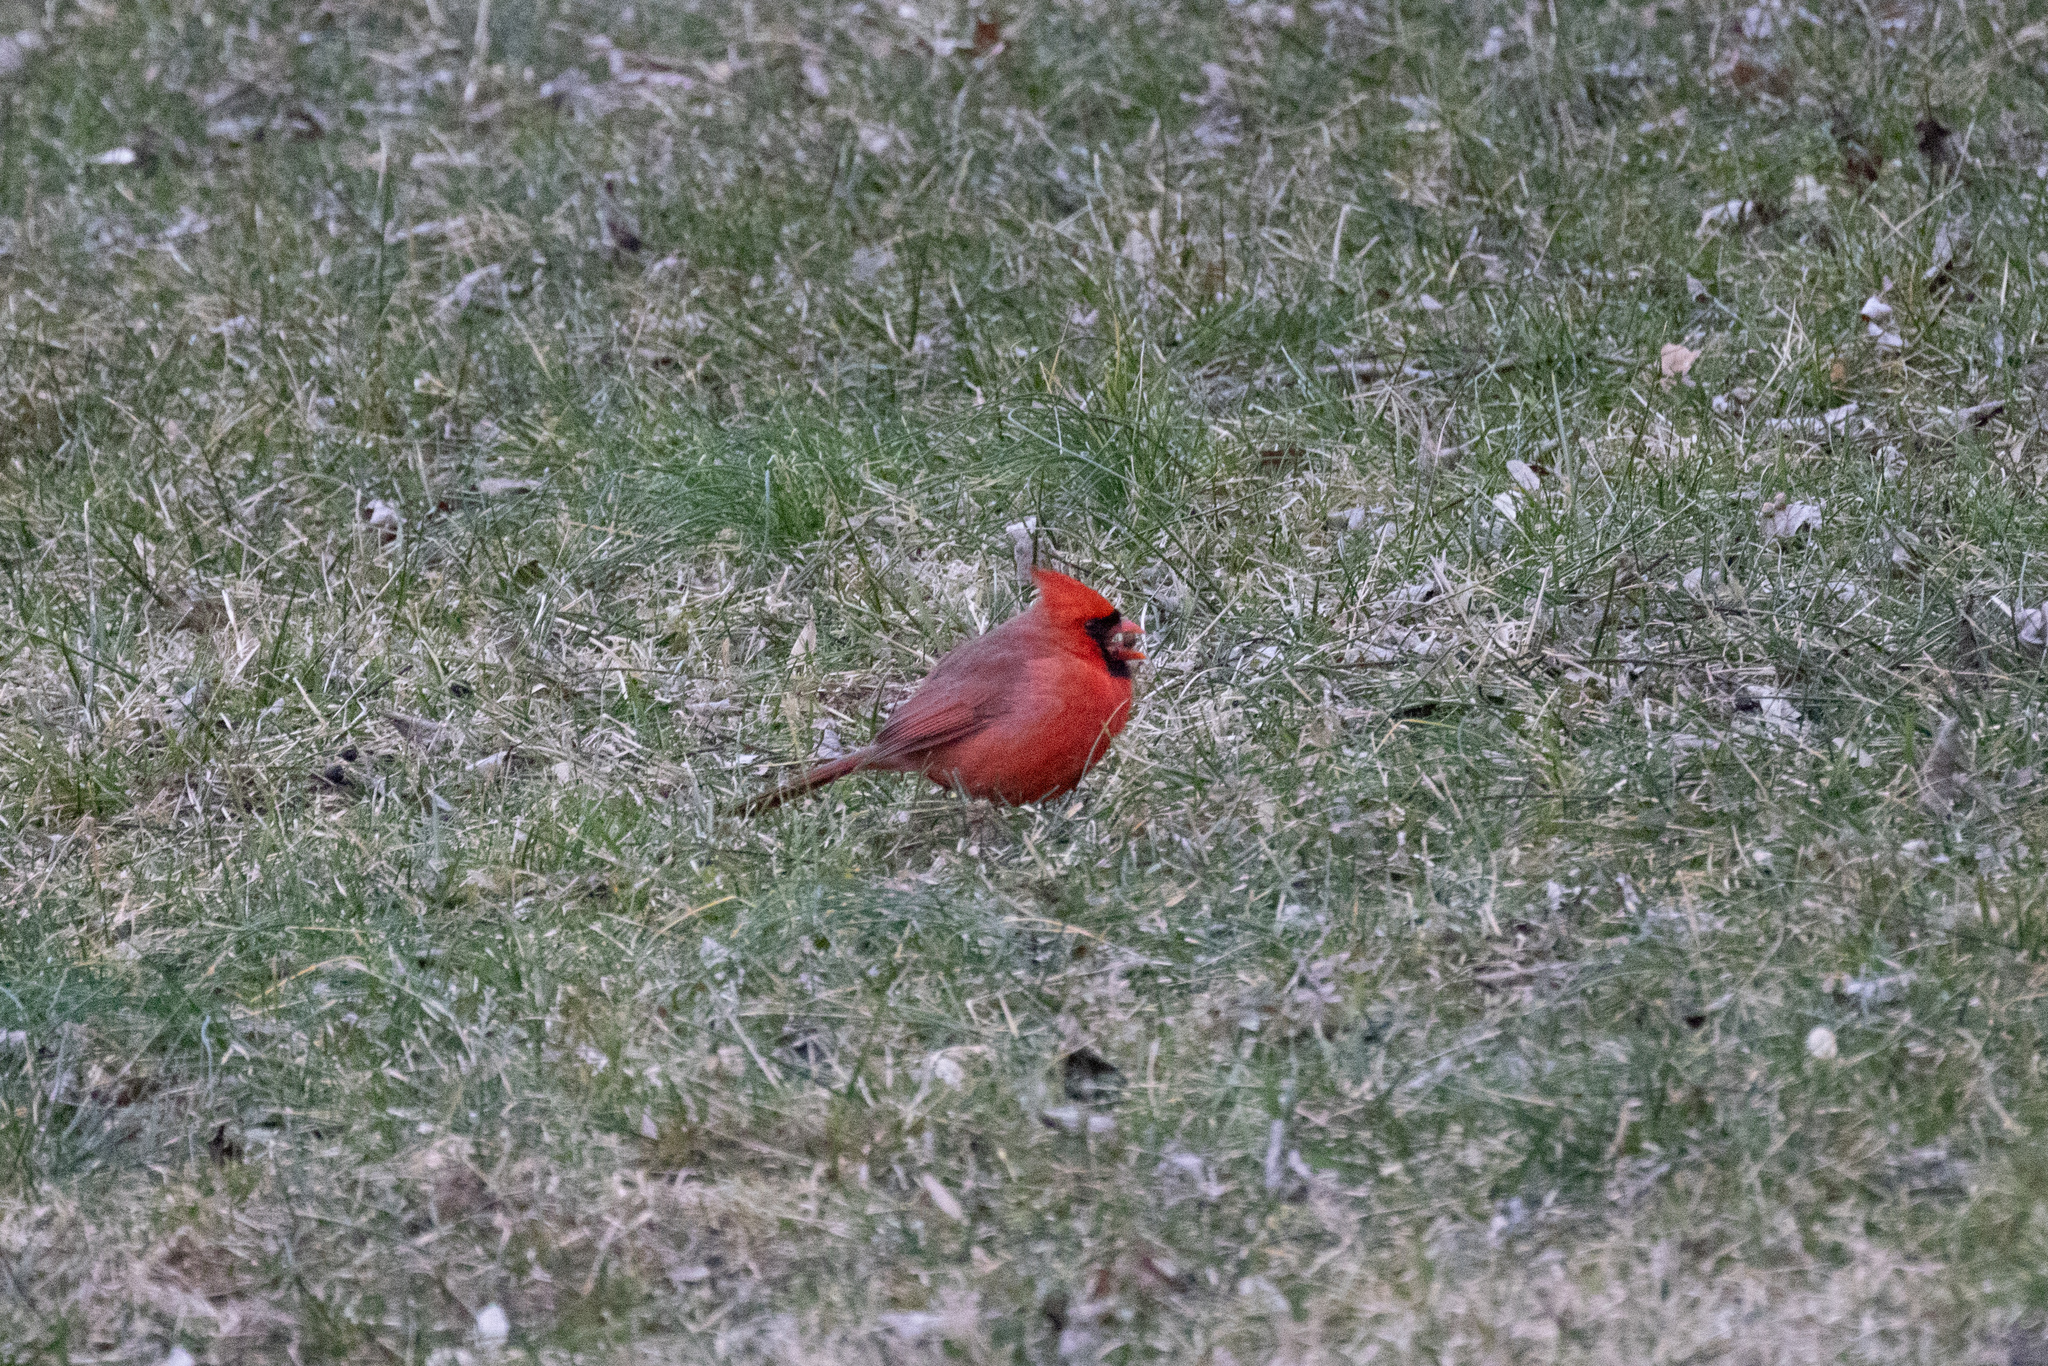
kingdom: Animalia
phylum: Chordata
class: Aves
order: Passeriformes
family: Cardinalidae
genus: Cardinalis
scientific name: Cardinalis cardinalis
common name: Northern cardinal
